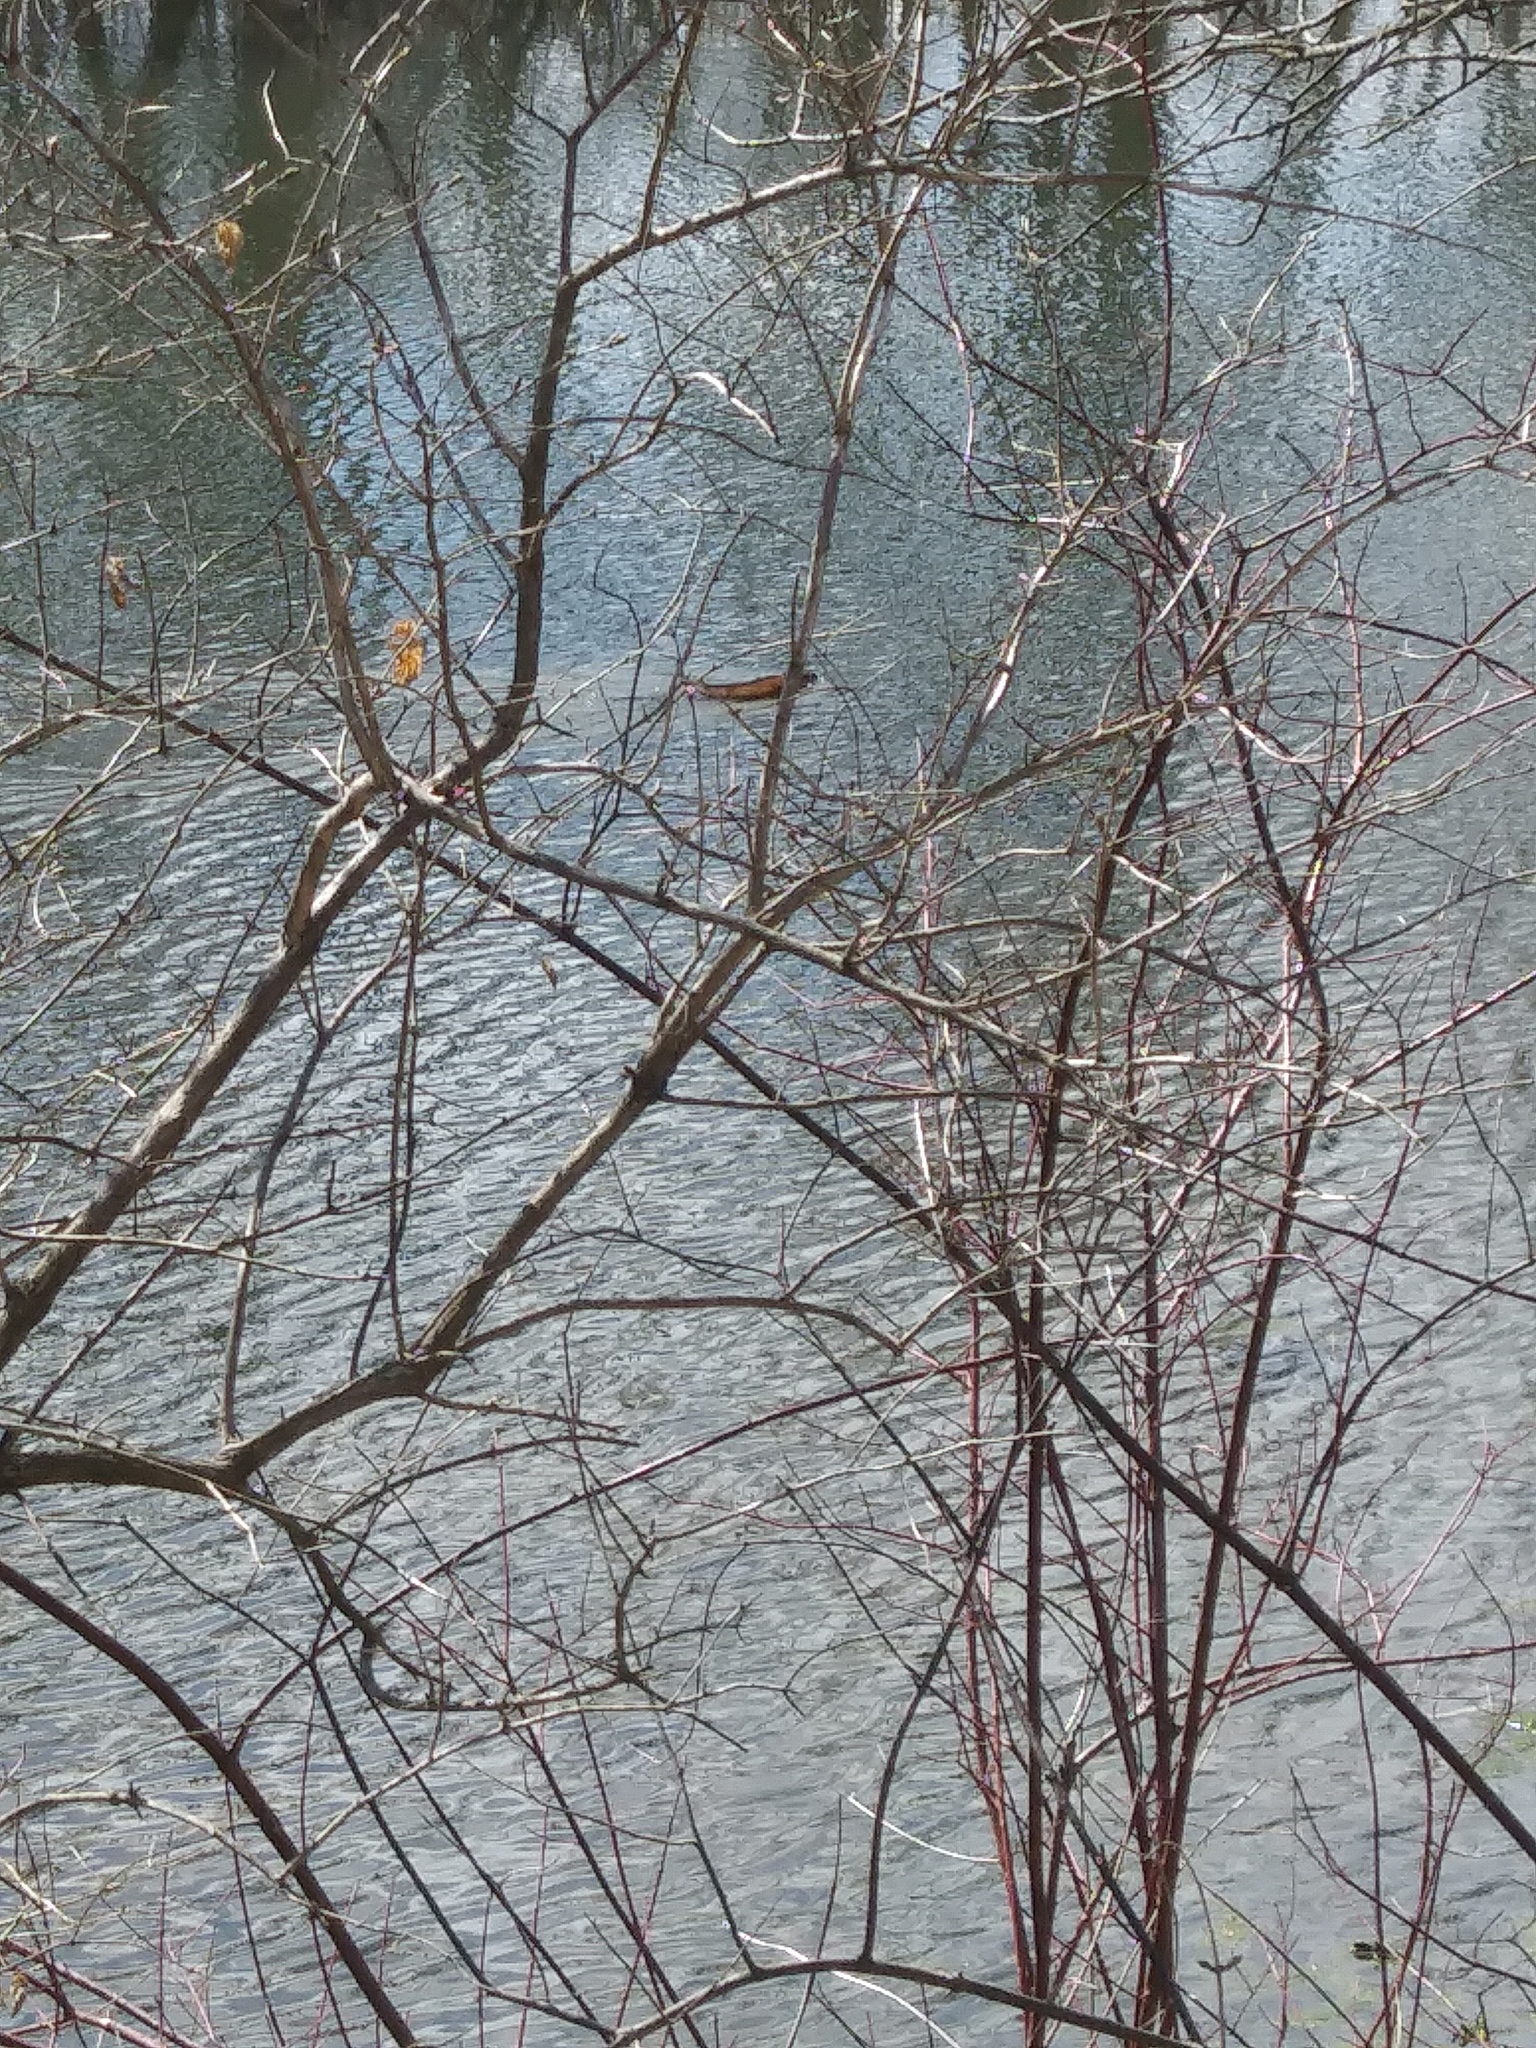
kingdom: Animalia
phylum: Chordata
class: Mammalia
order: Rodentia
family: Cricetidae
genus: Ondatra
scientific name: Ondatra zibethicus
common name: Muskrat
